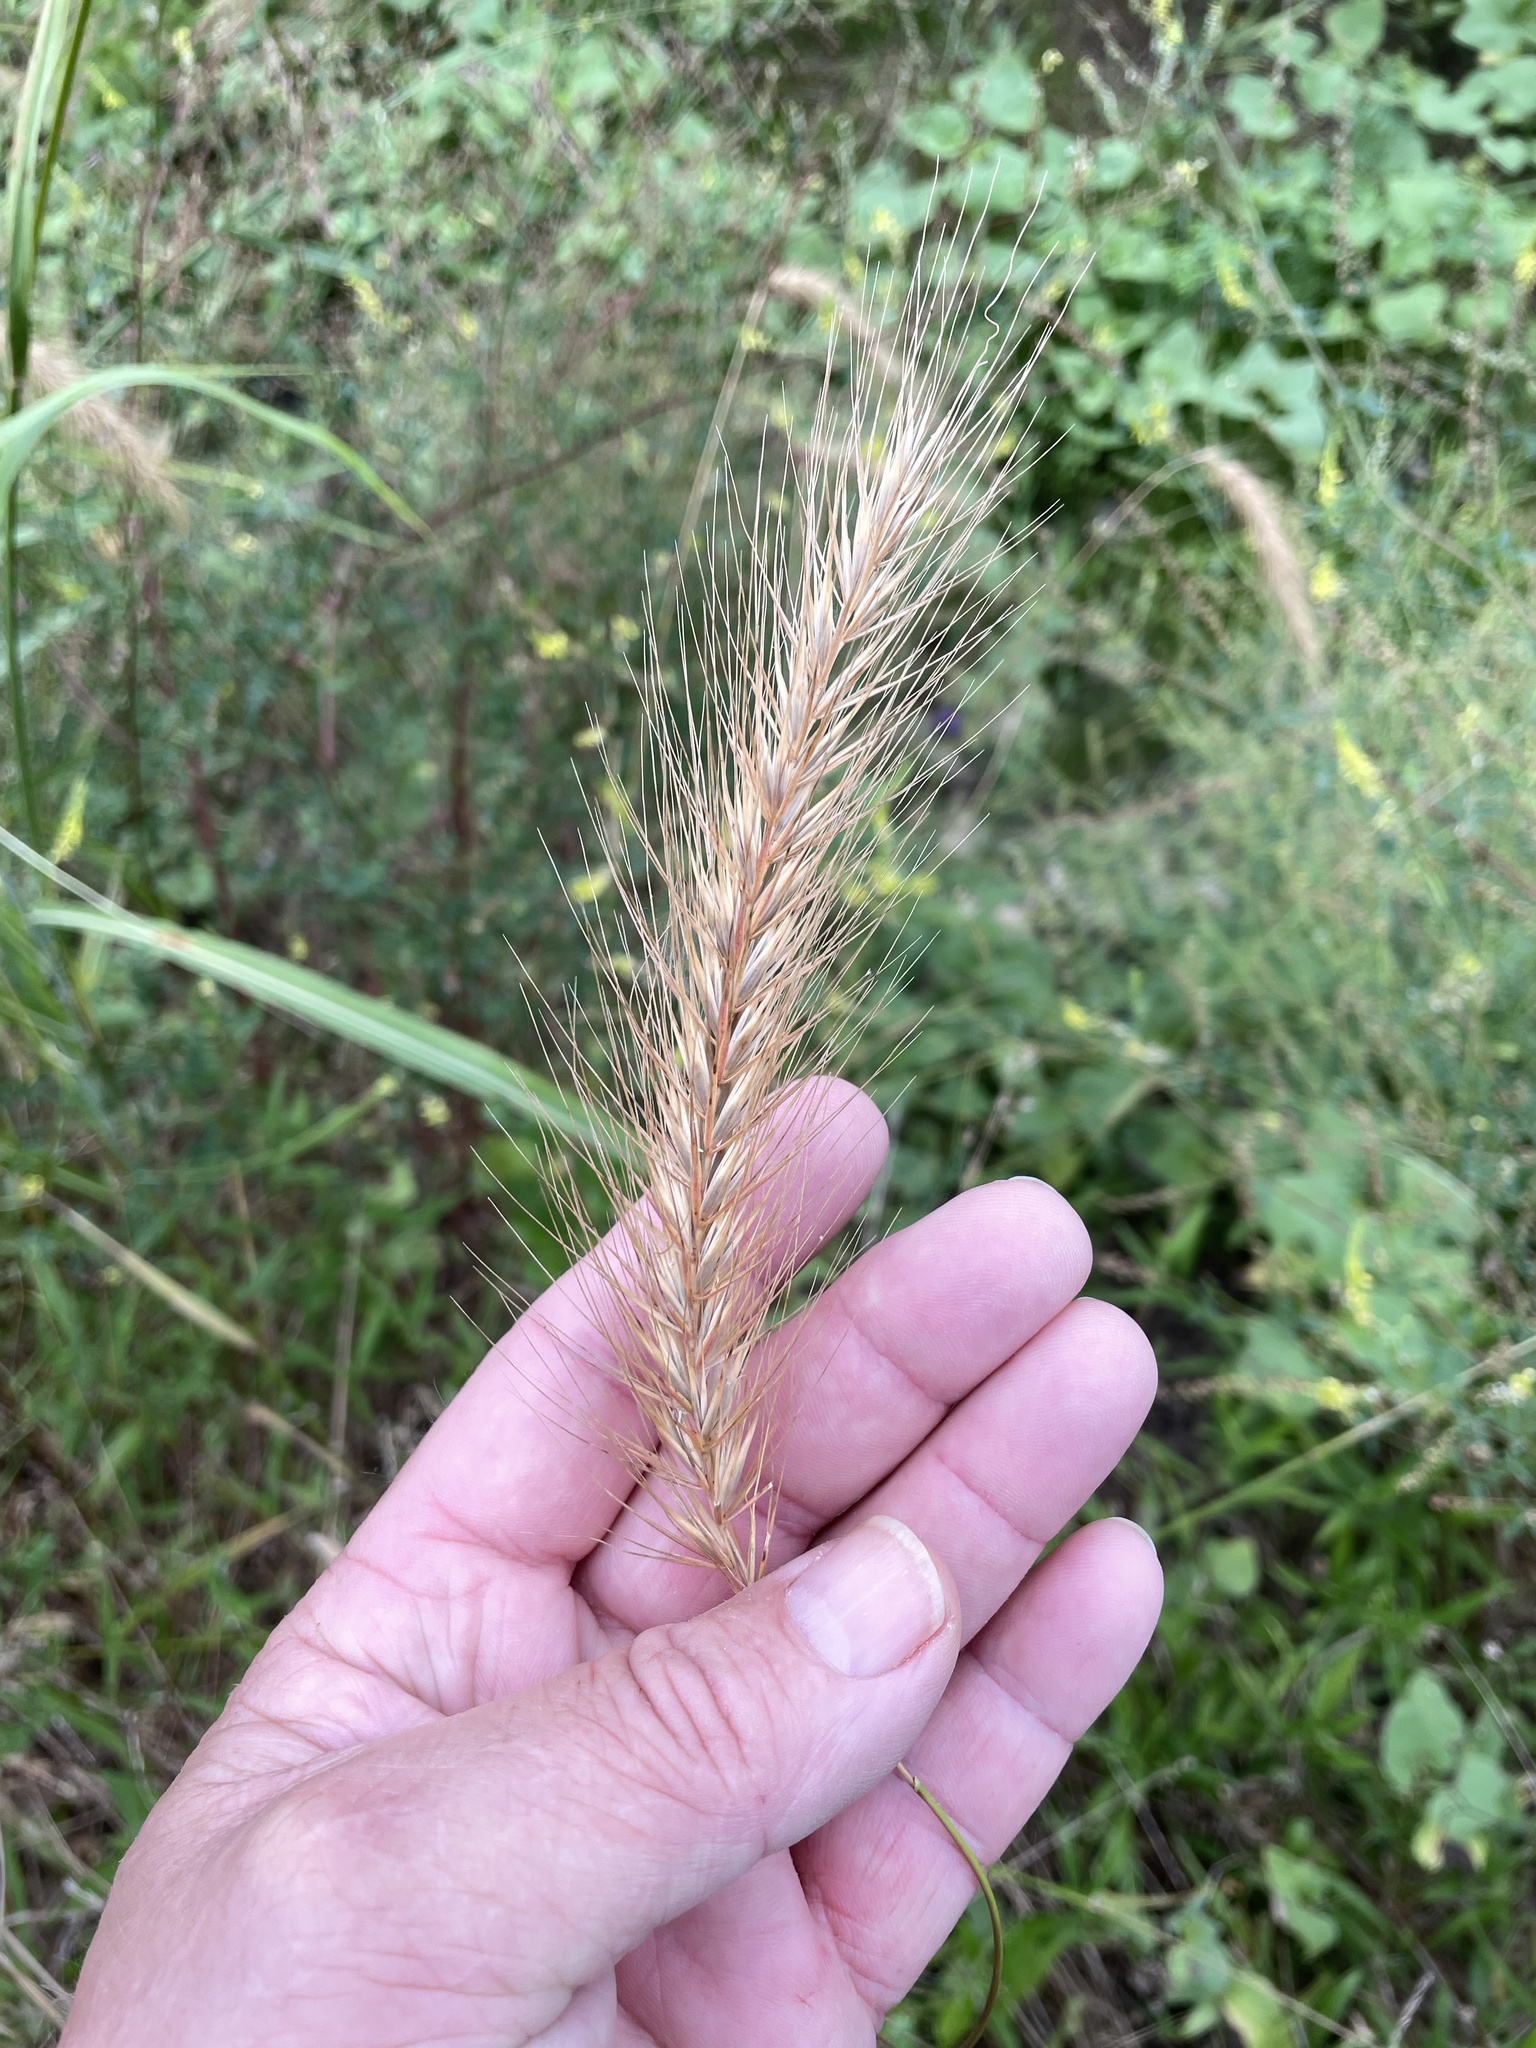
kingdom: Plantae
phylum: Tracheophyta
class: Liliopsida
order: Poales
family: Poaceae
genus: Elymus
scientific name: Elymus canadensis
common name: Canada wild rye
